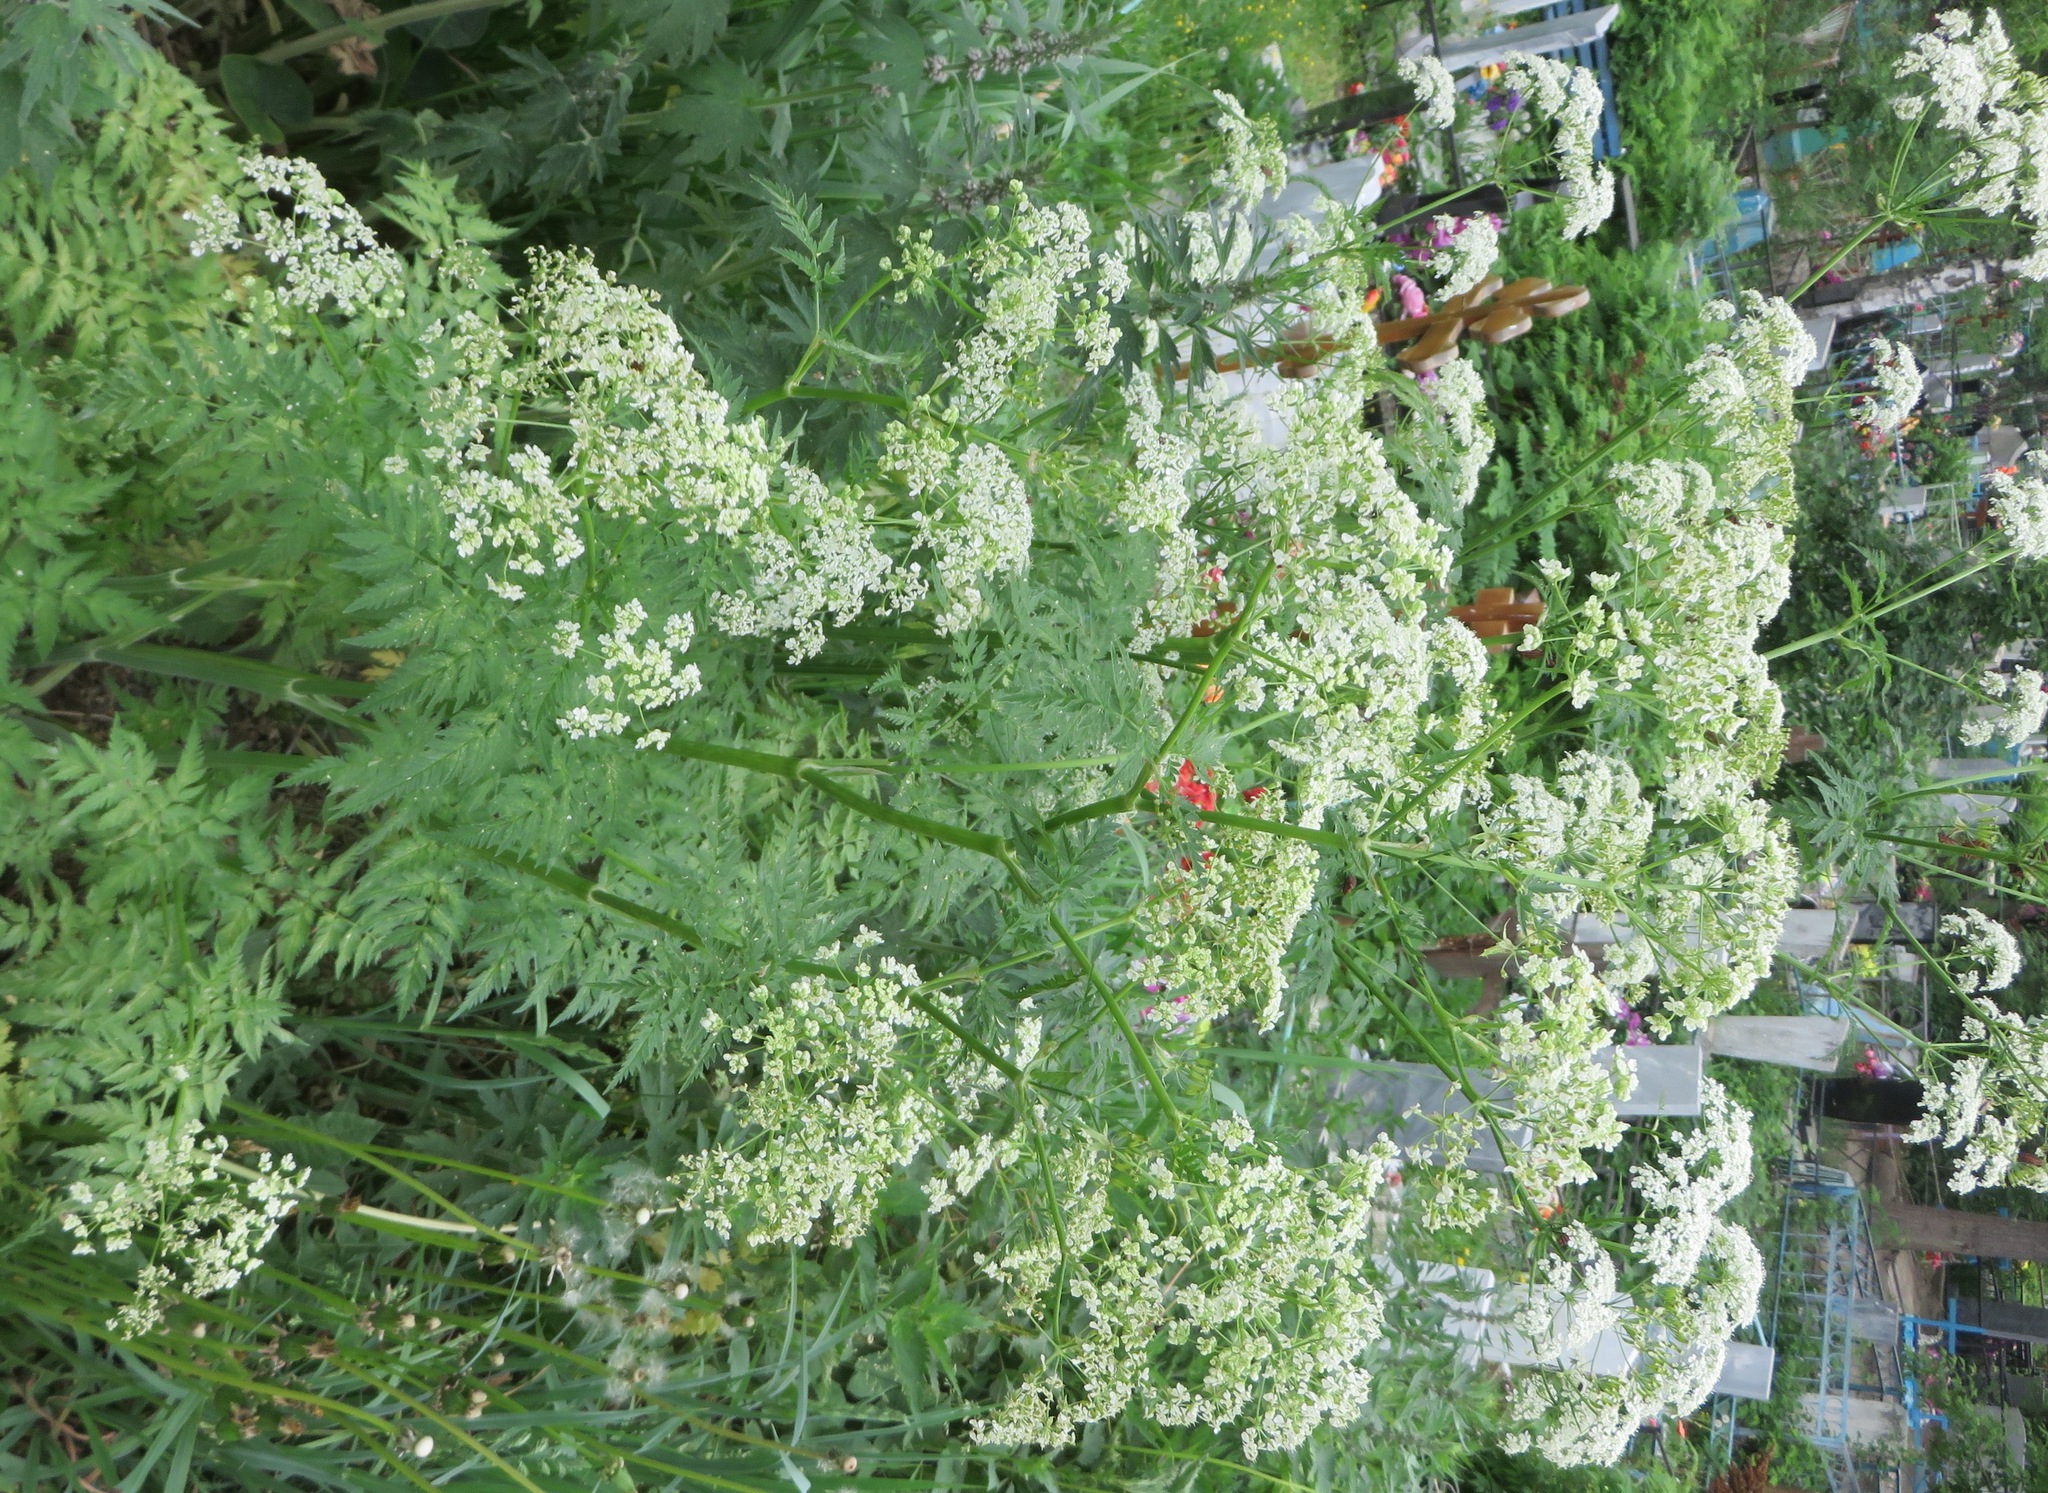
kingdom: Plantae
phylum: Tracheophyta
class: Magnoliopsida
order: Apiales
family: Apiaceae
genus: Anthriscus
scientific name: Anthriscus sylvestris
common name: Cow parsley
